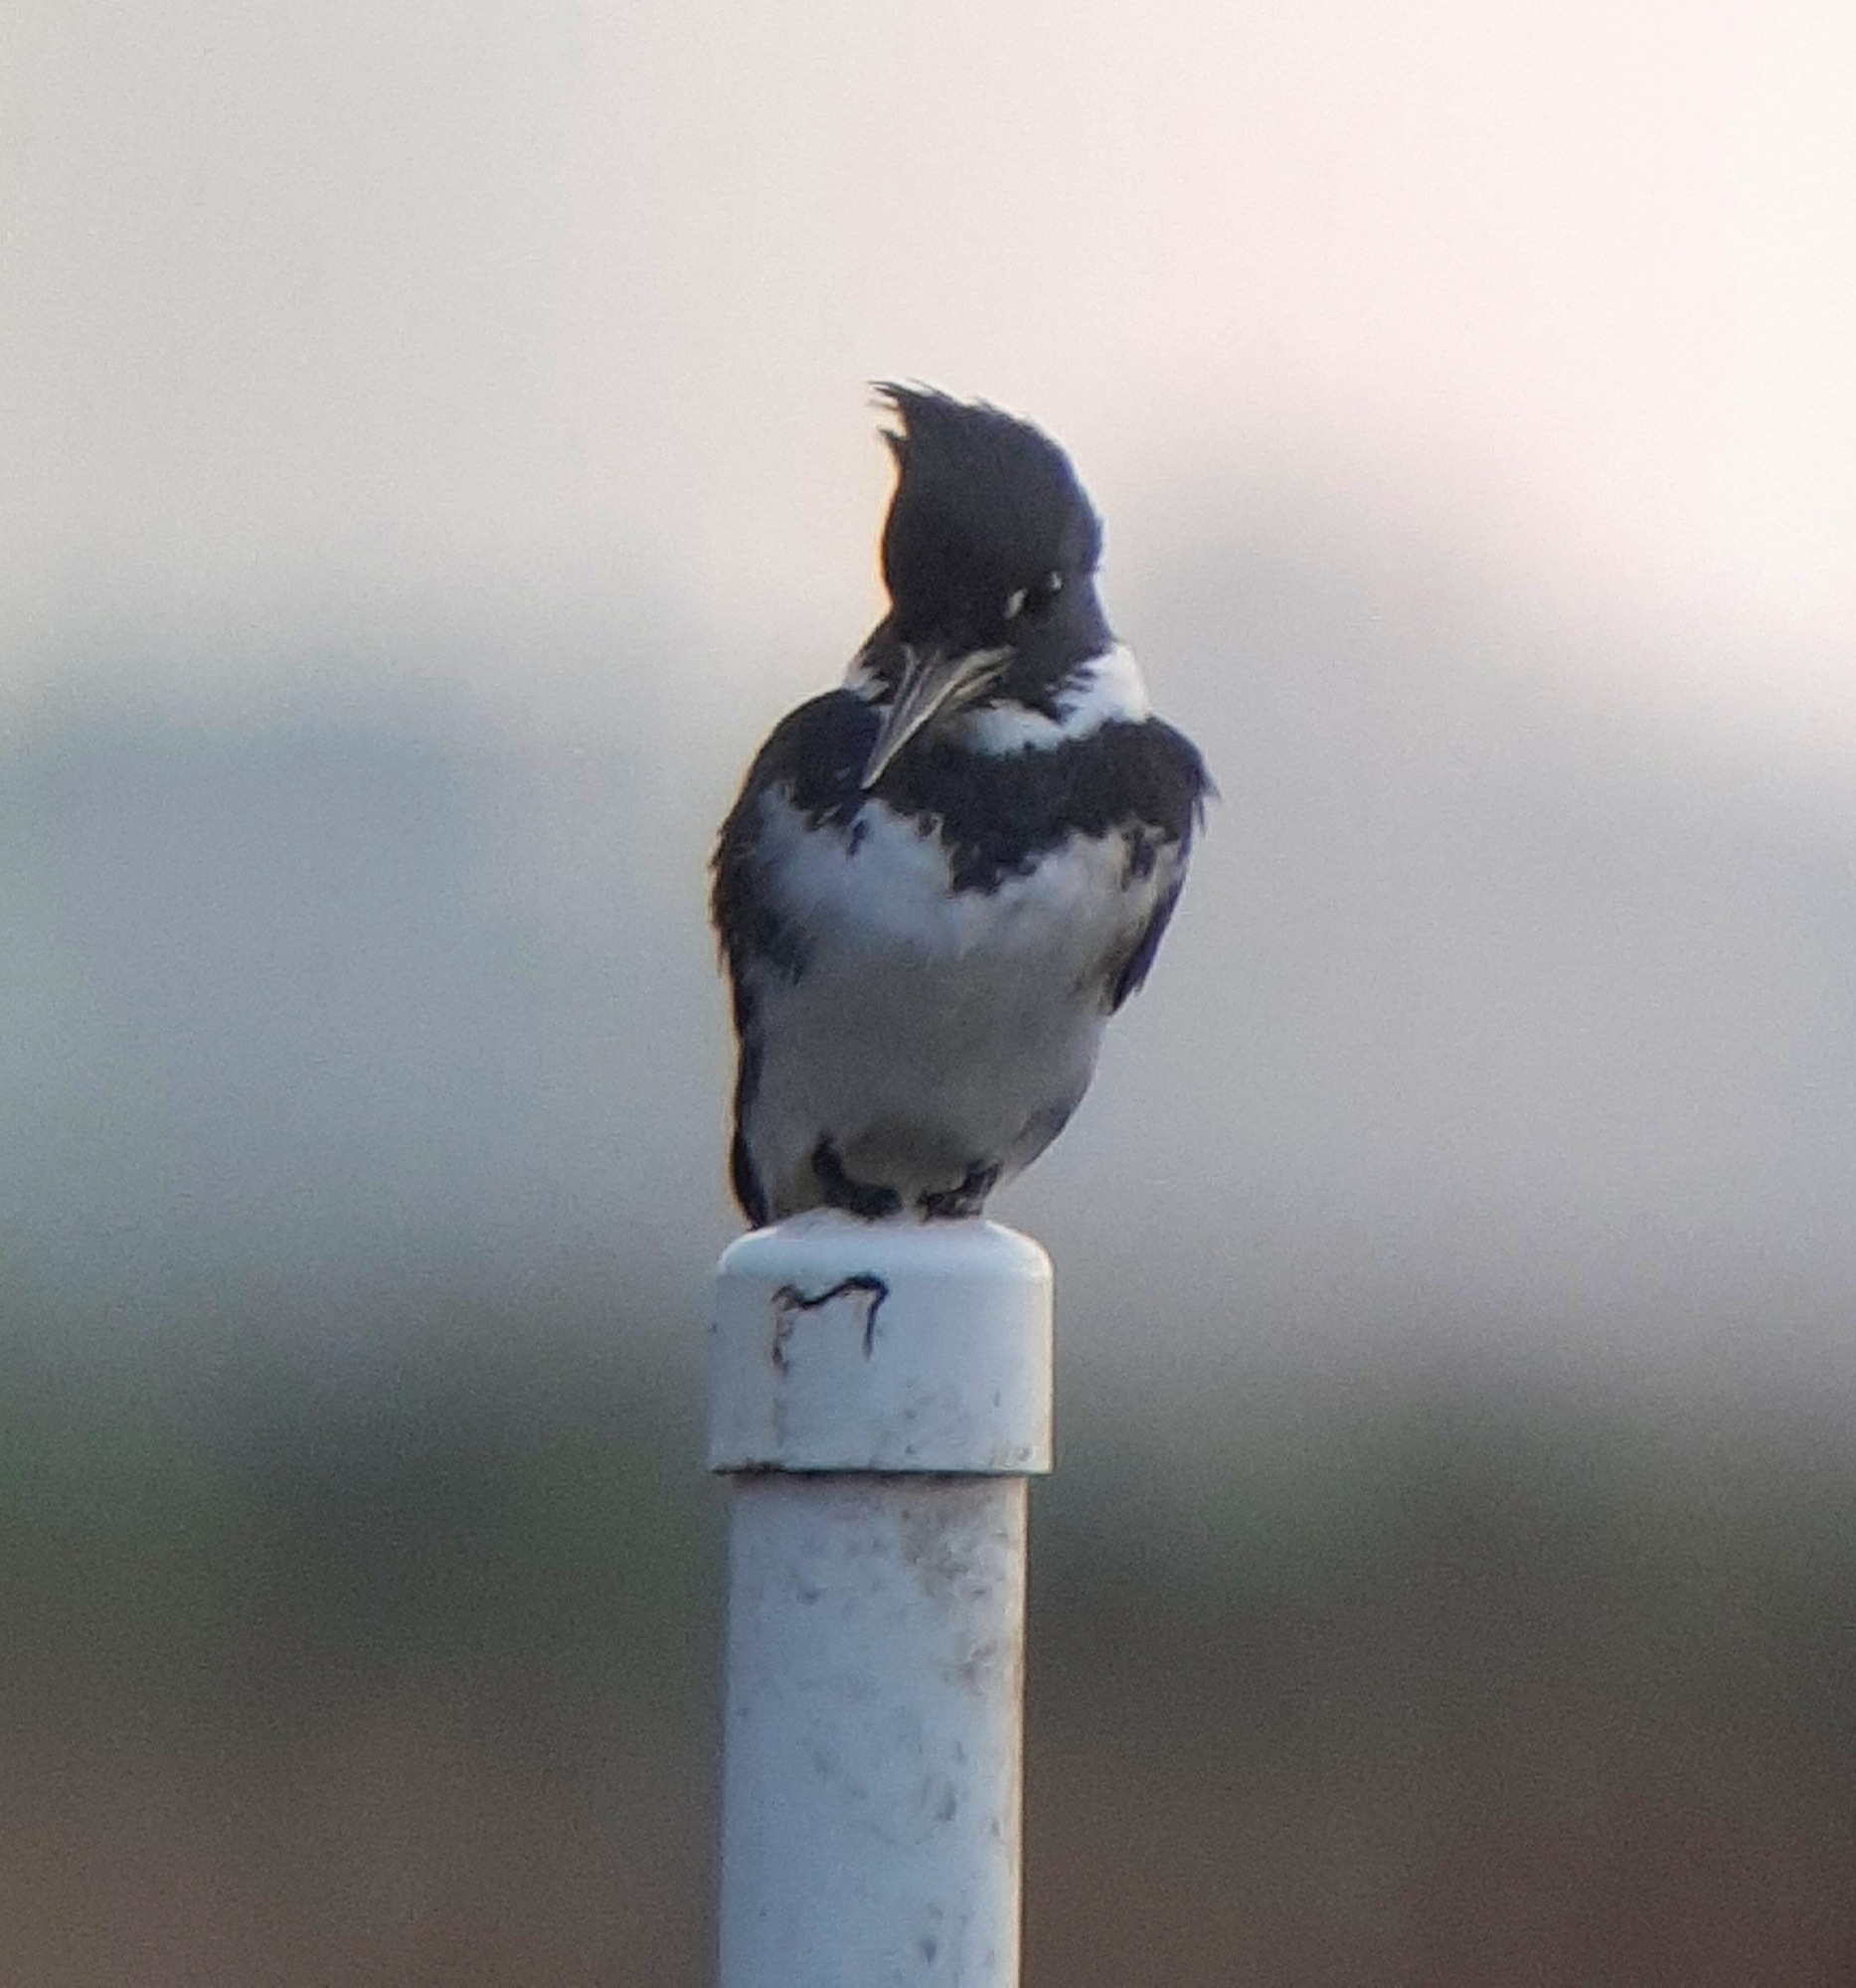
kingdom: Animalia
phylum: Chordata
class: Aves
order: Coraciiformes
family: Alcedinidae
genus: Megaceryle
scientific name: Megaceryle alcyon
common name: Belted kingfisher
